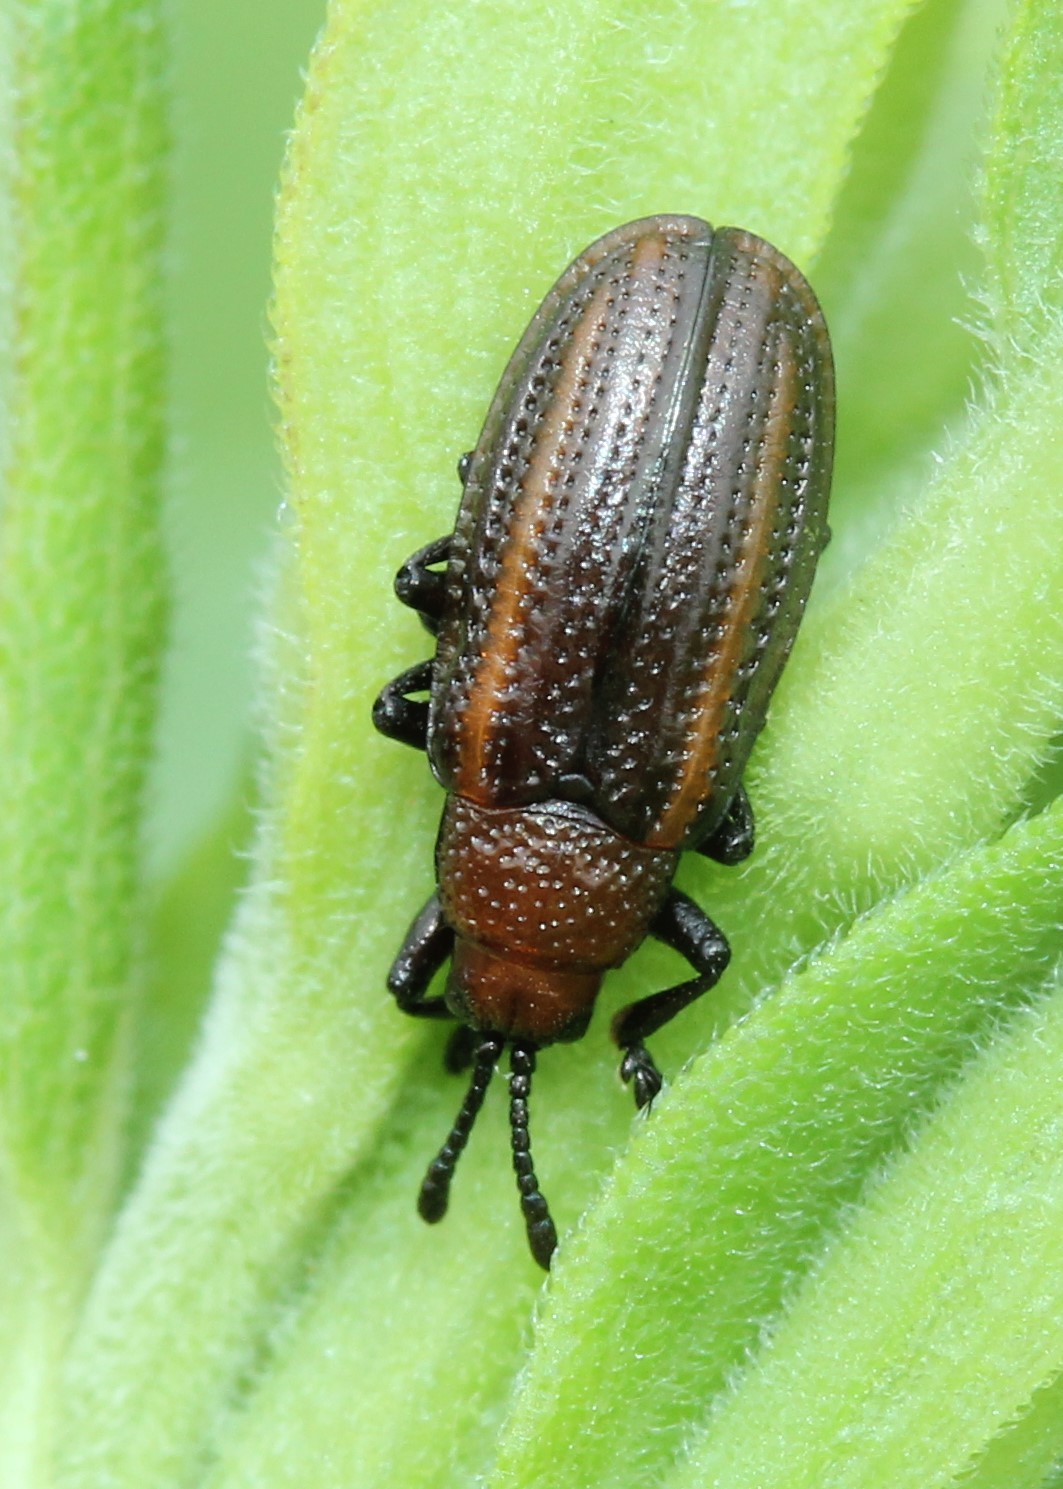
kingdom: Animalia
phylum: Arthropoda
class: Insecta
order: Coleoptera
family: Chrysomelidae
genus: Microrhopala
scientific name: Microrhopala vittata
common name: Goldenrod leaf miner beetle
